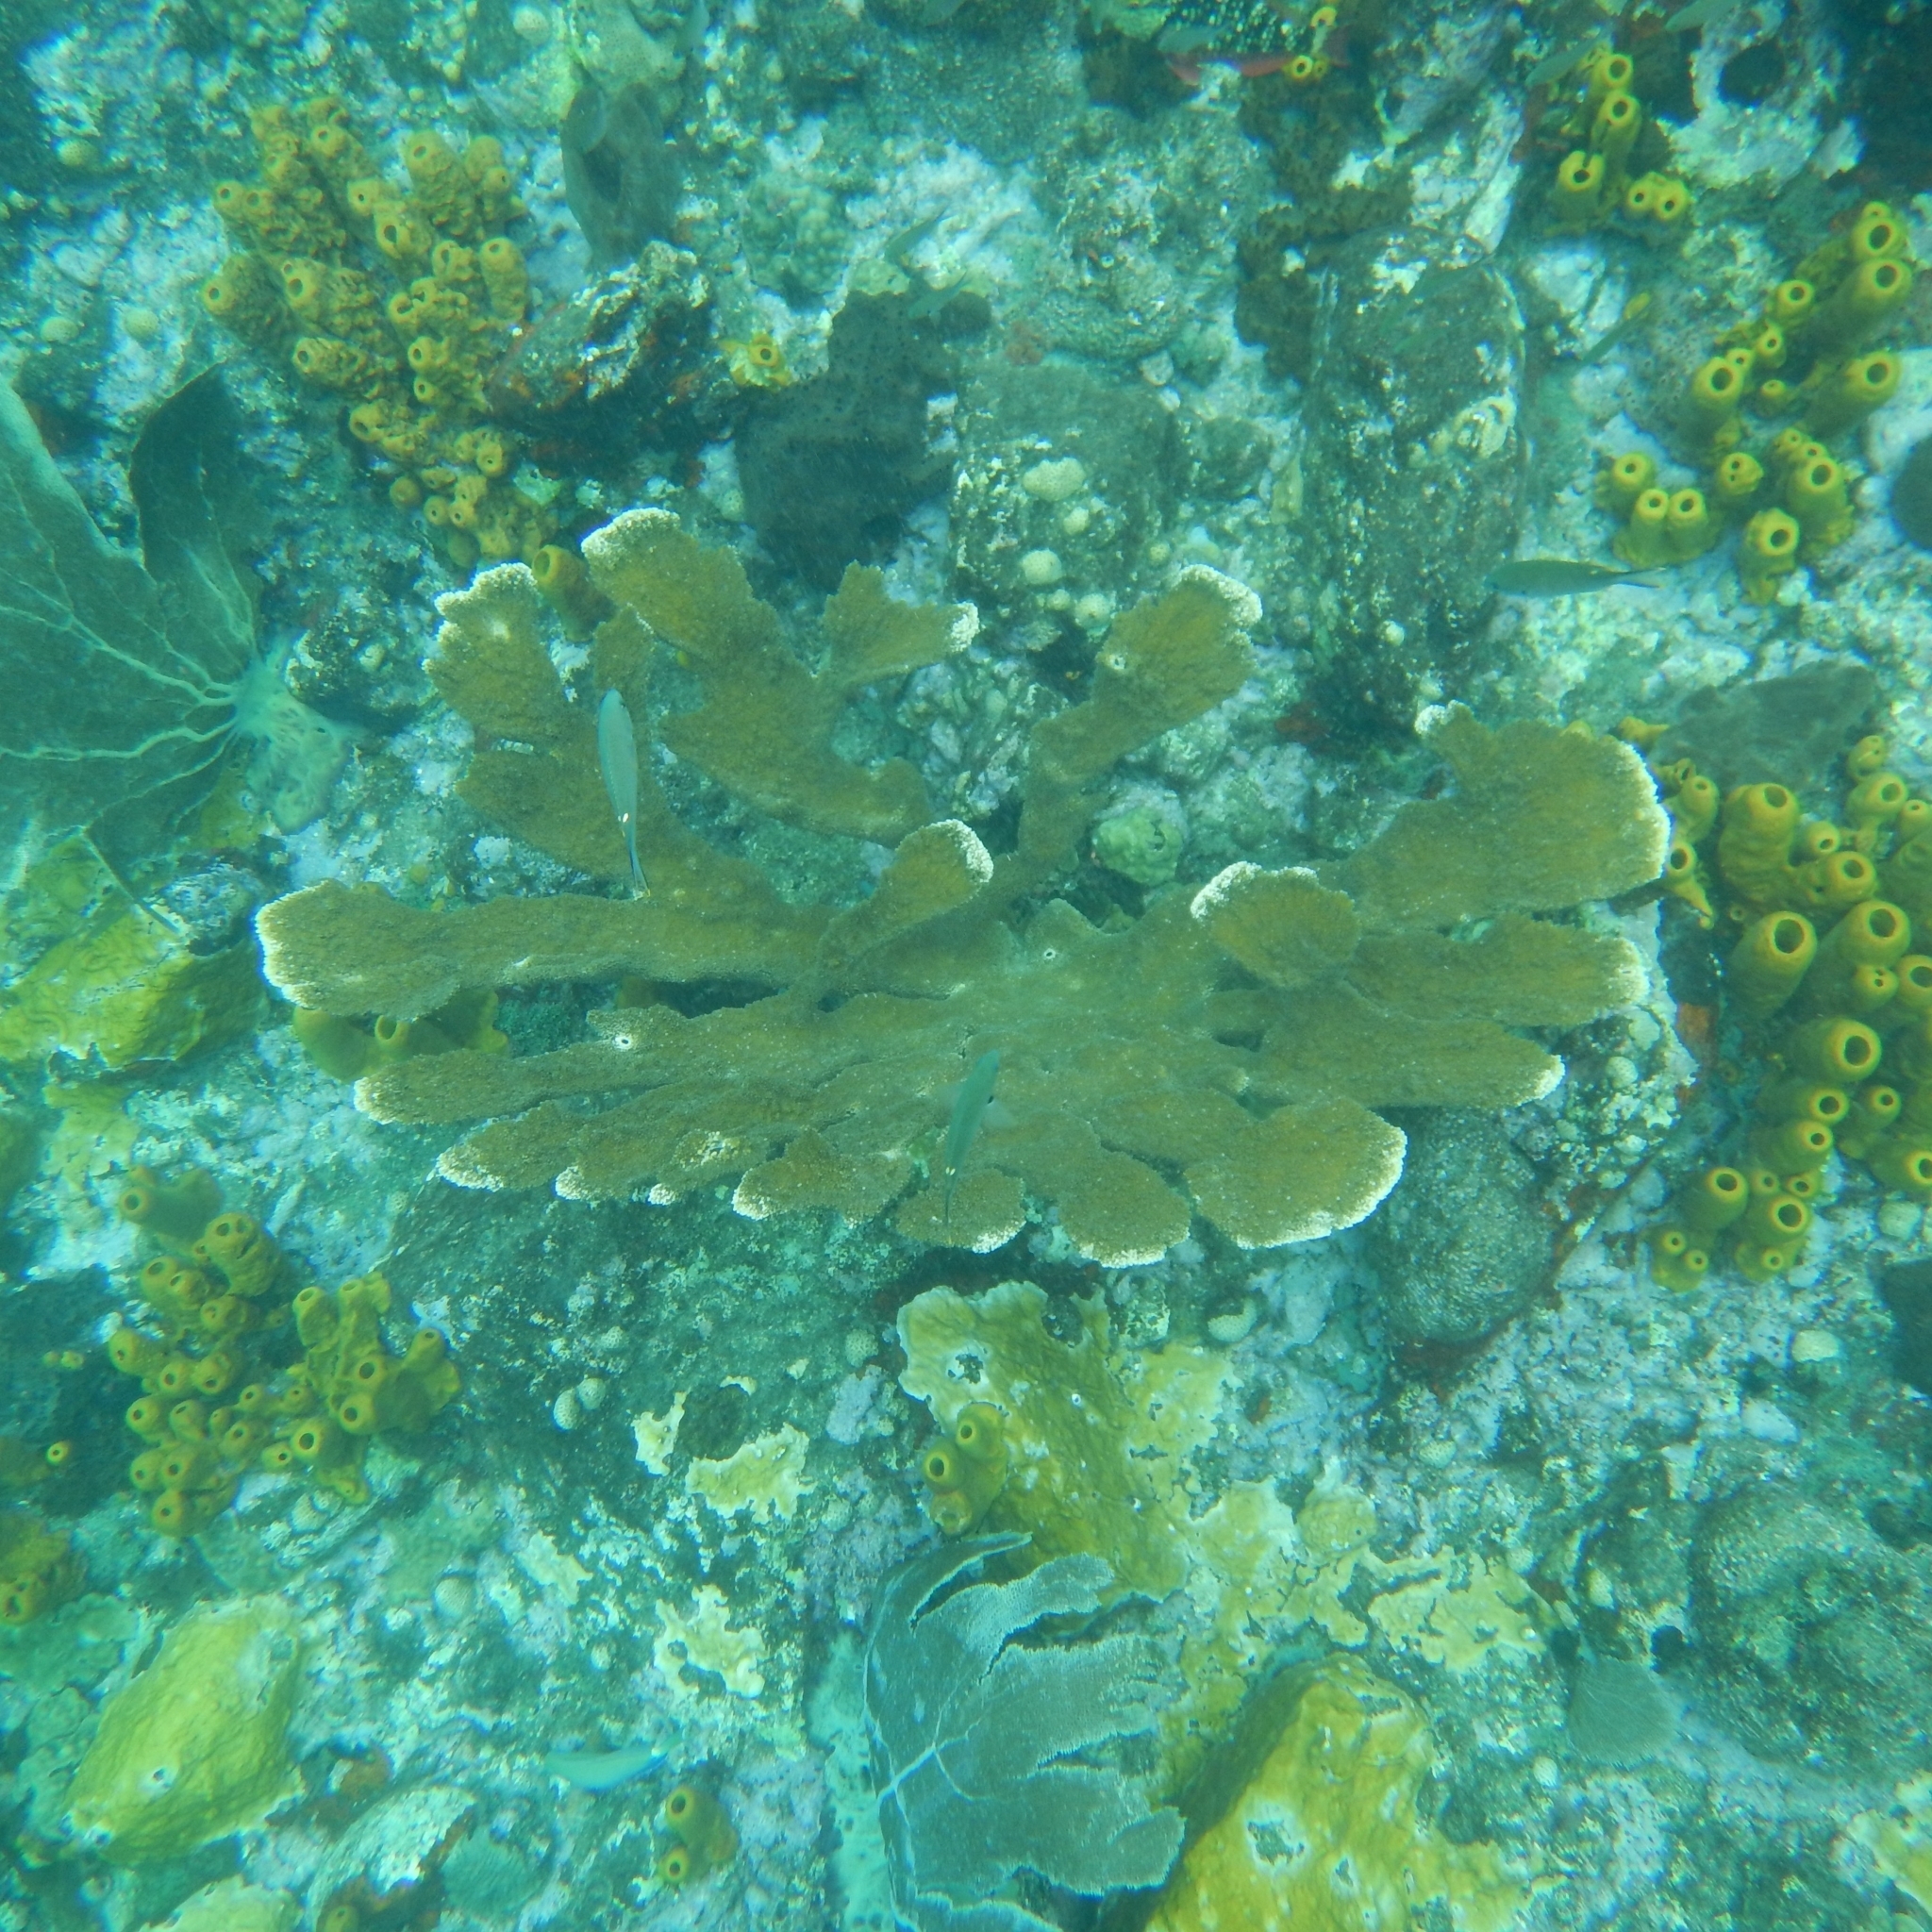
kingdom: Animalia
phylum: Cnidaria
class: Anthozoa
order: Scleractinia
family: Acroporidae
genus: Acropora
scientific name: Acropora palmata
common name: Elkhorn coral
